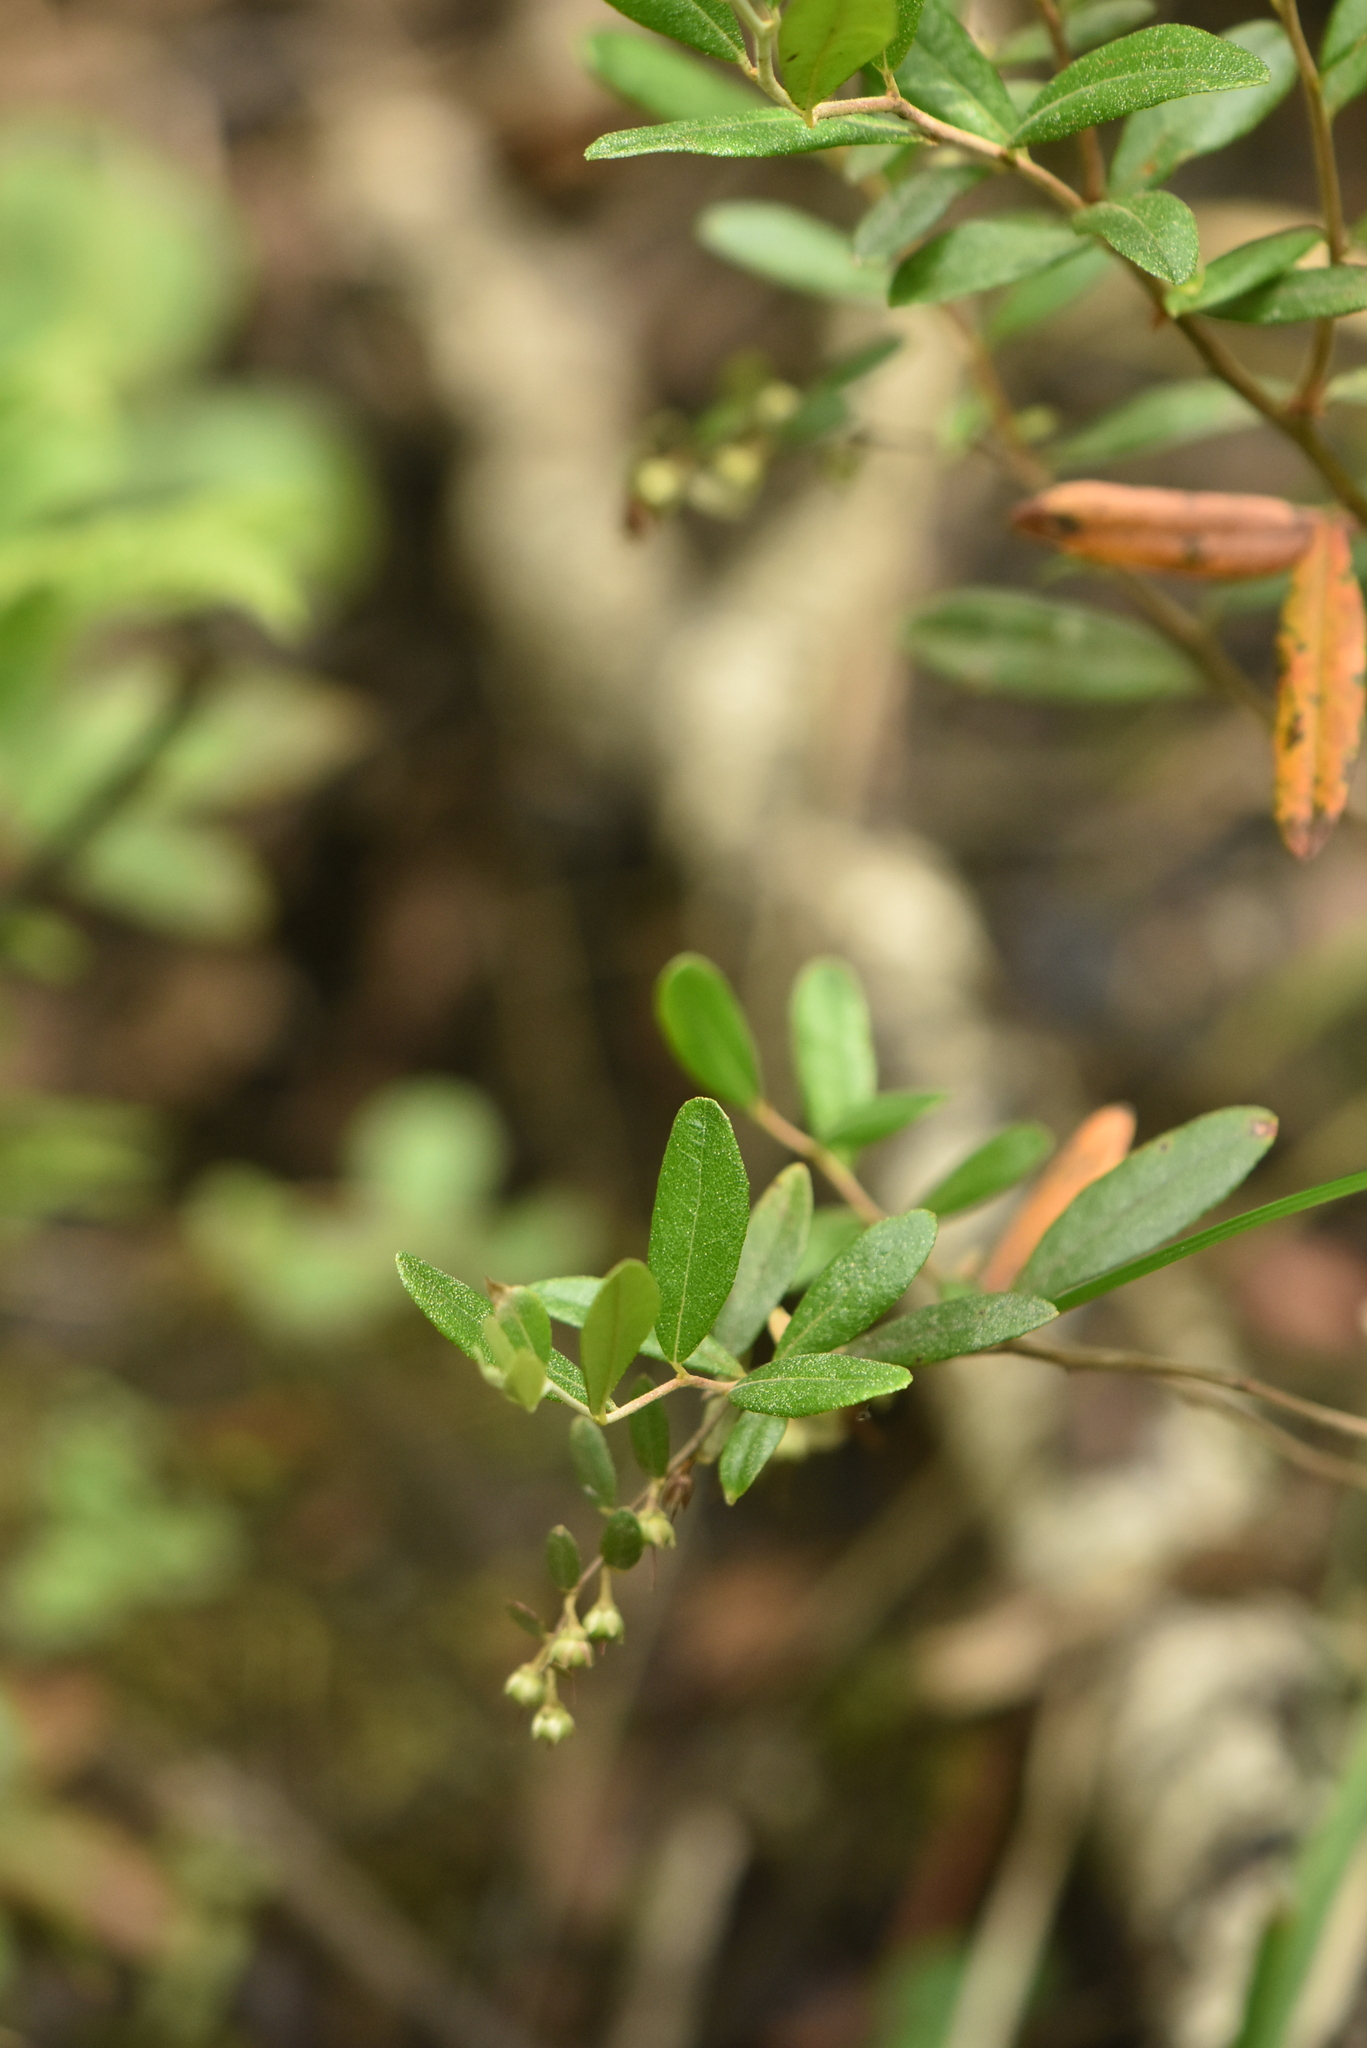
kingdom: Plantae
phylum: Tracheophyta
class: Magnoliopsida
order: Ericales
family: Ericaceae
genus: Chamaedaphne
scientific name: Chamaedaphne calyculata
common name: Leatherleaf
